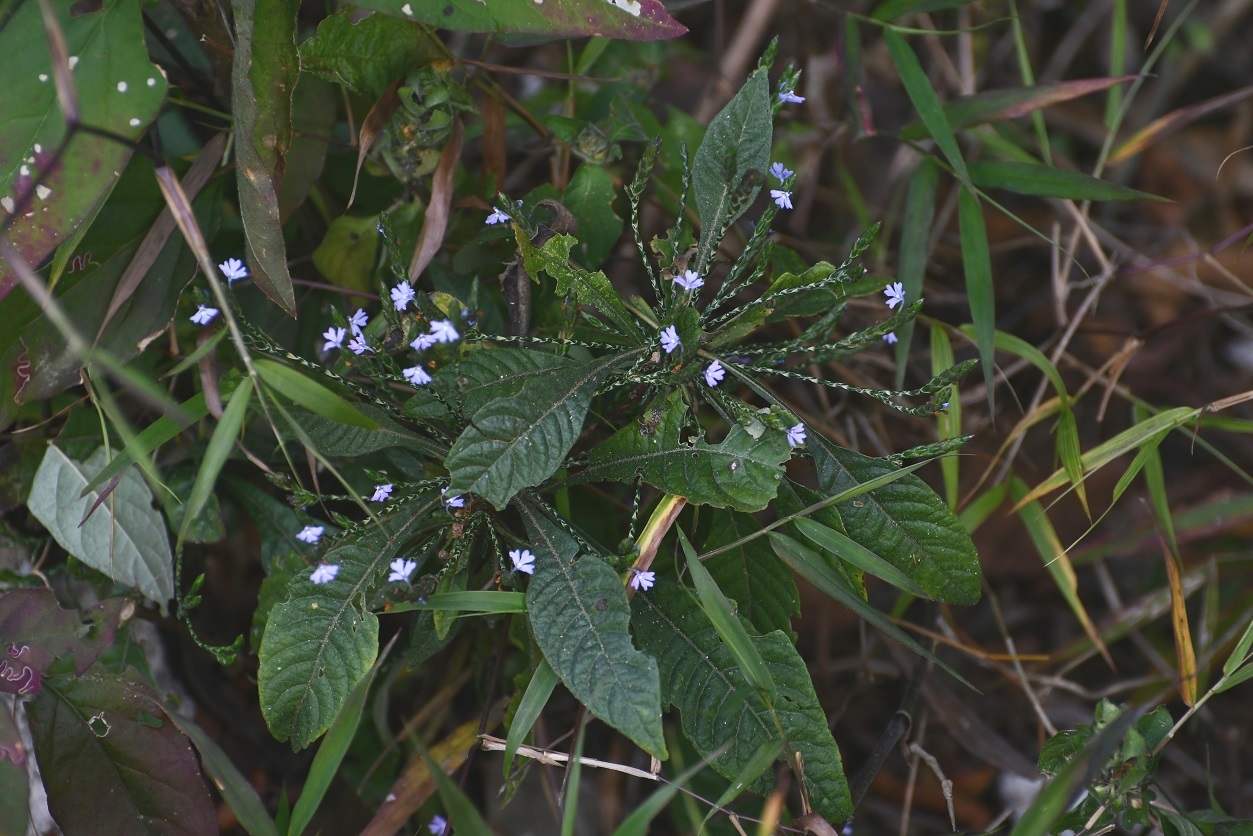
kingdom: Plantae
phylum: Tracheophyta
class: Magnoliopsida
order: Lamiales
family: Acanthaceae
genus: Elytraria
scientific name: Elytraria imbricata
